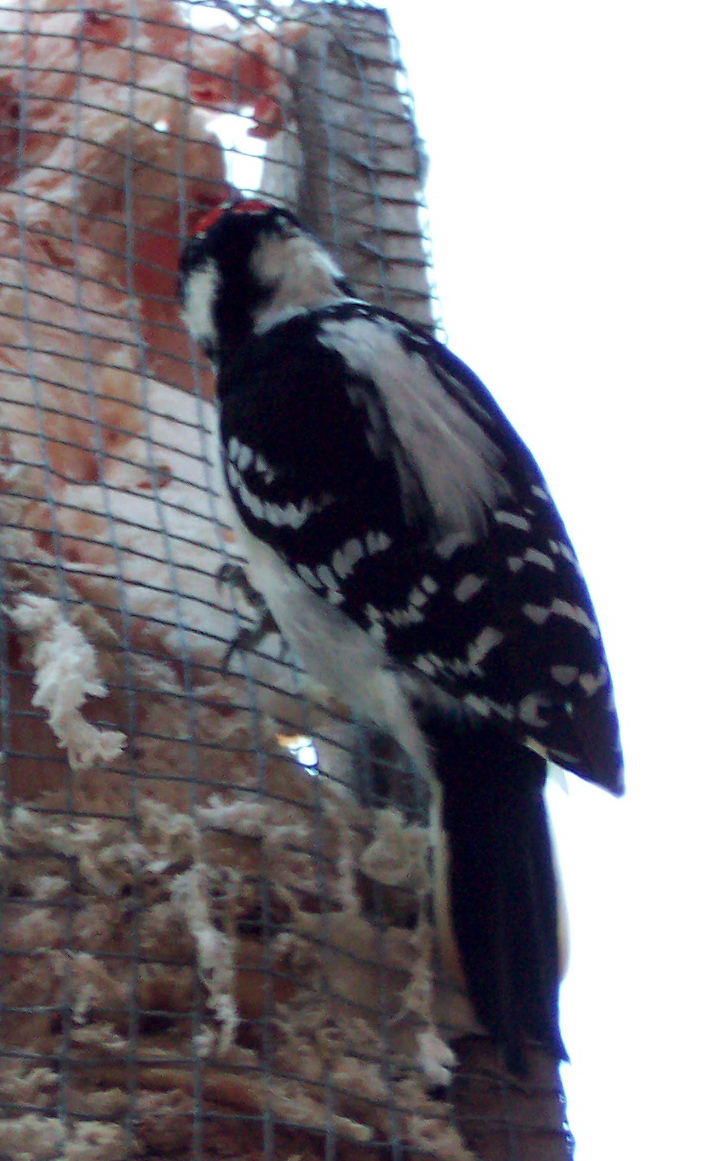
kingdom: Animalia
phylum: Chordata
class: Aves
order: Piciformes
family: Picidae
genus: Leuconotopicus
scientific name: Leuconotopicus villosus
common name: Hairy woodpecker
